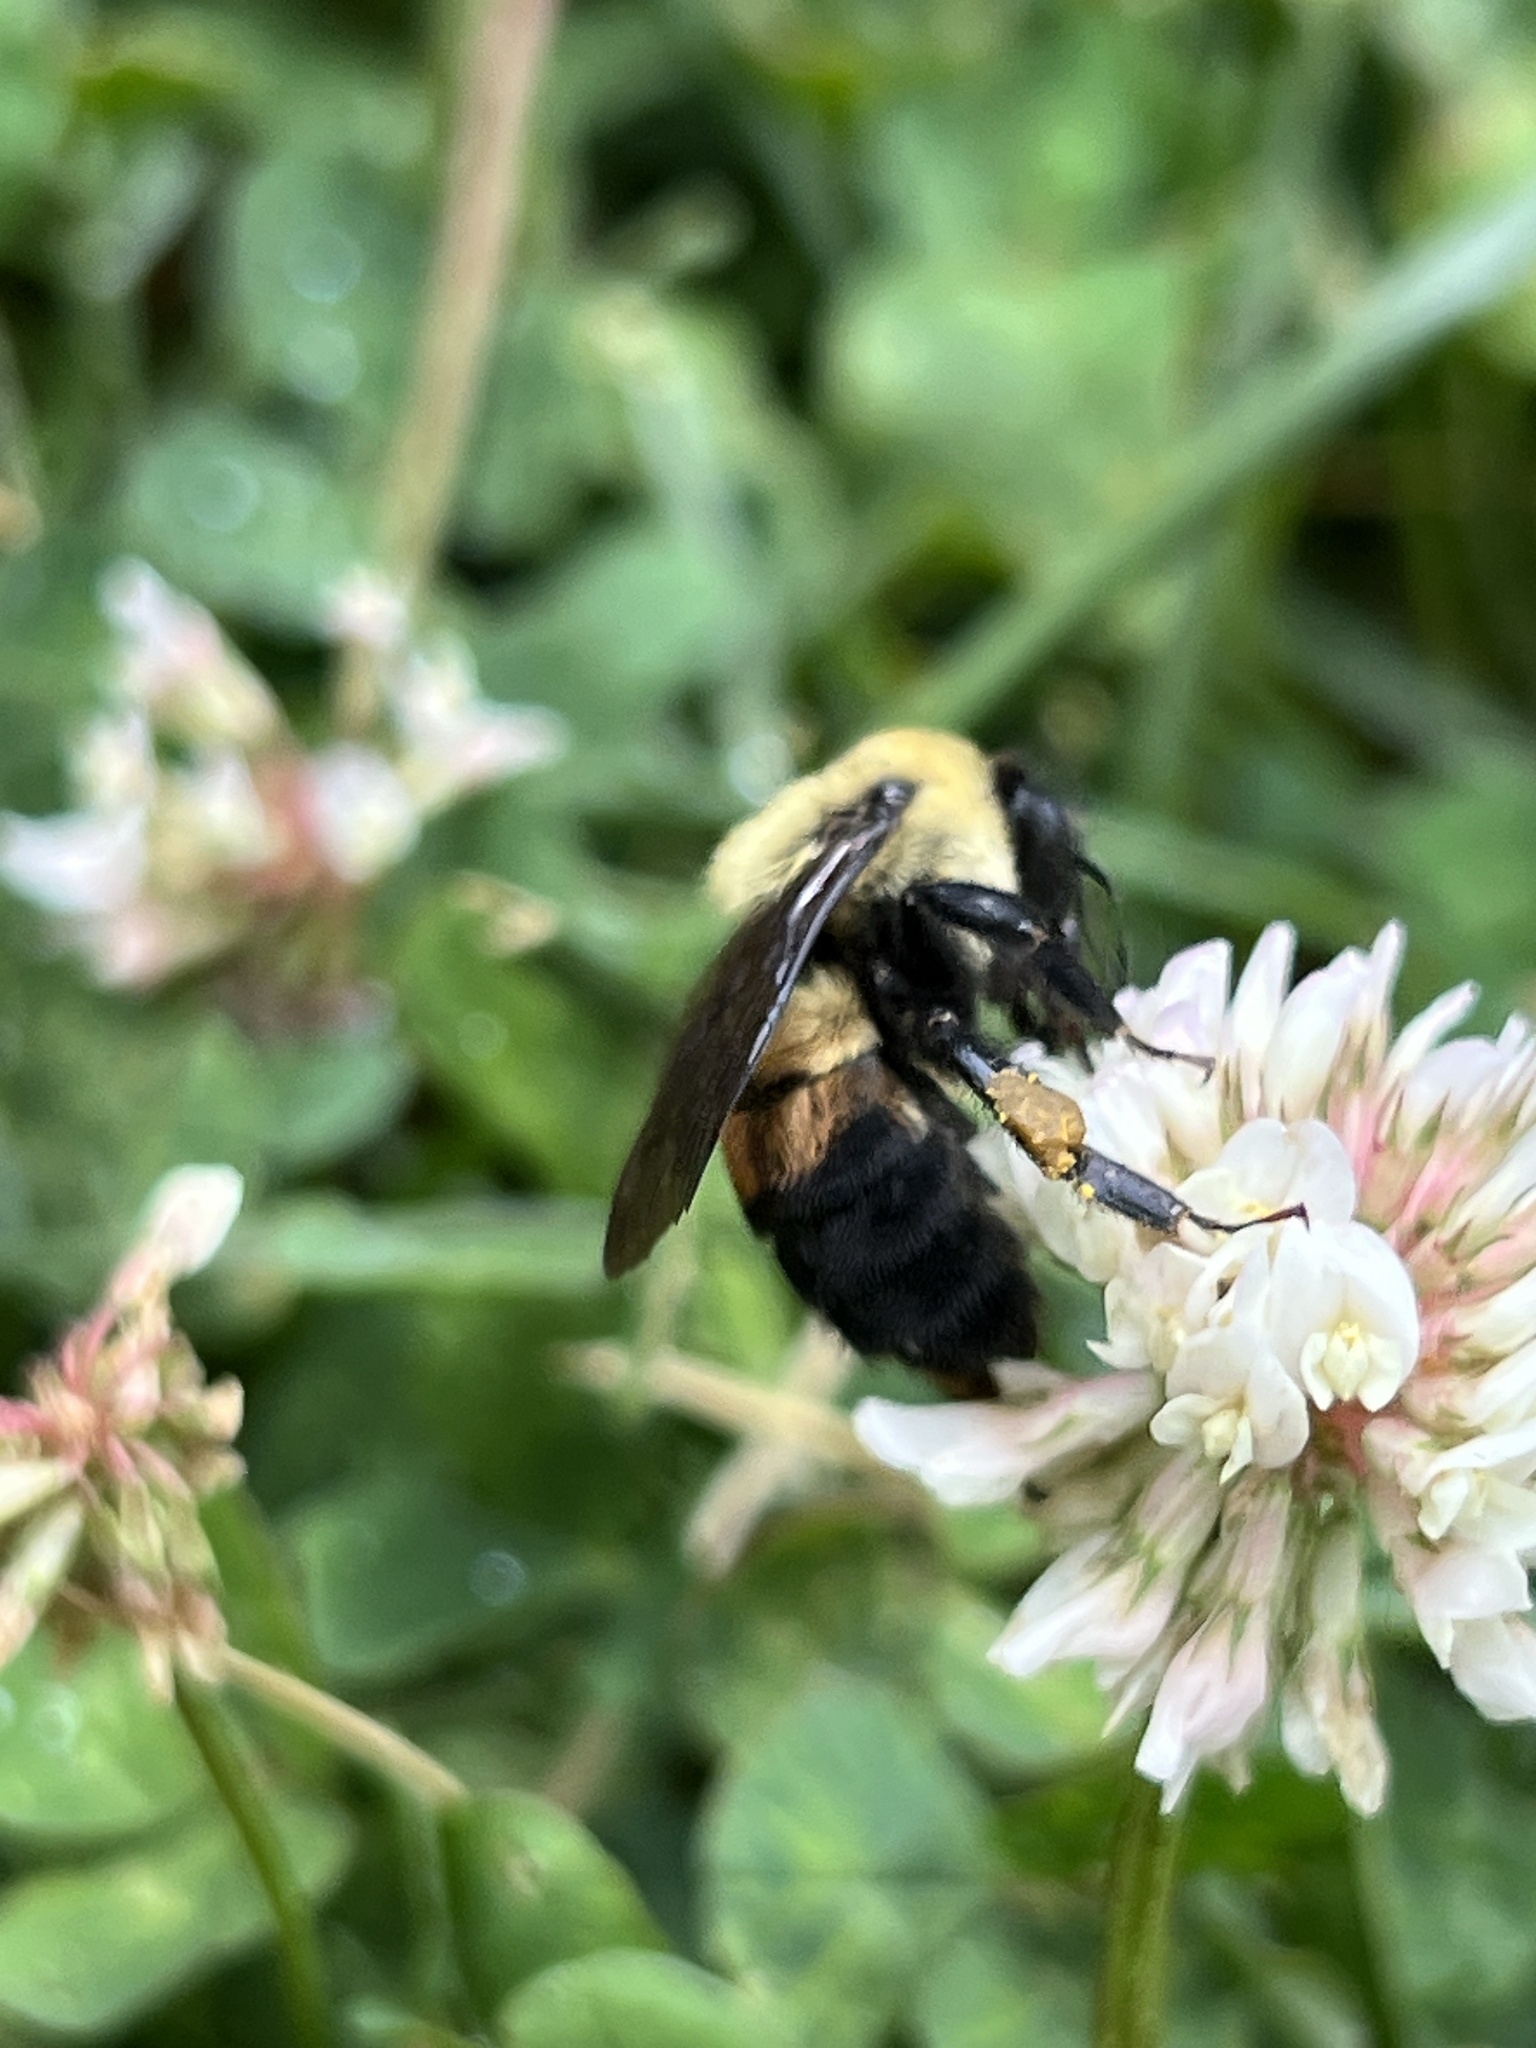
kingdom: Animalia
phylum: Arthropoda
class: Insecta
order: Hymenoptera
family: Apidae
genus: Bombus
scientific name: Bombus griseocollis
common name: Brown-belted bumble bee
